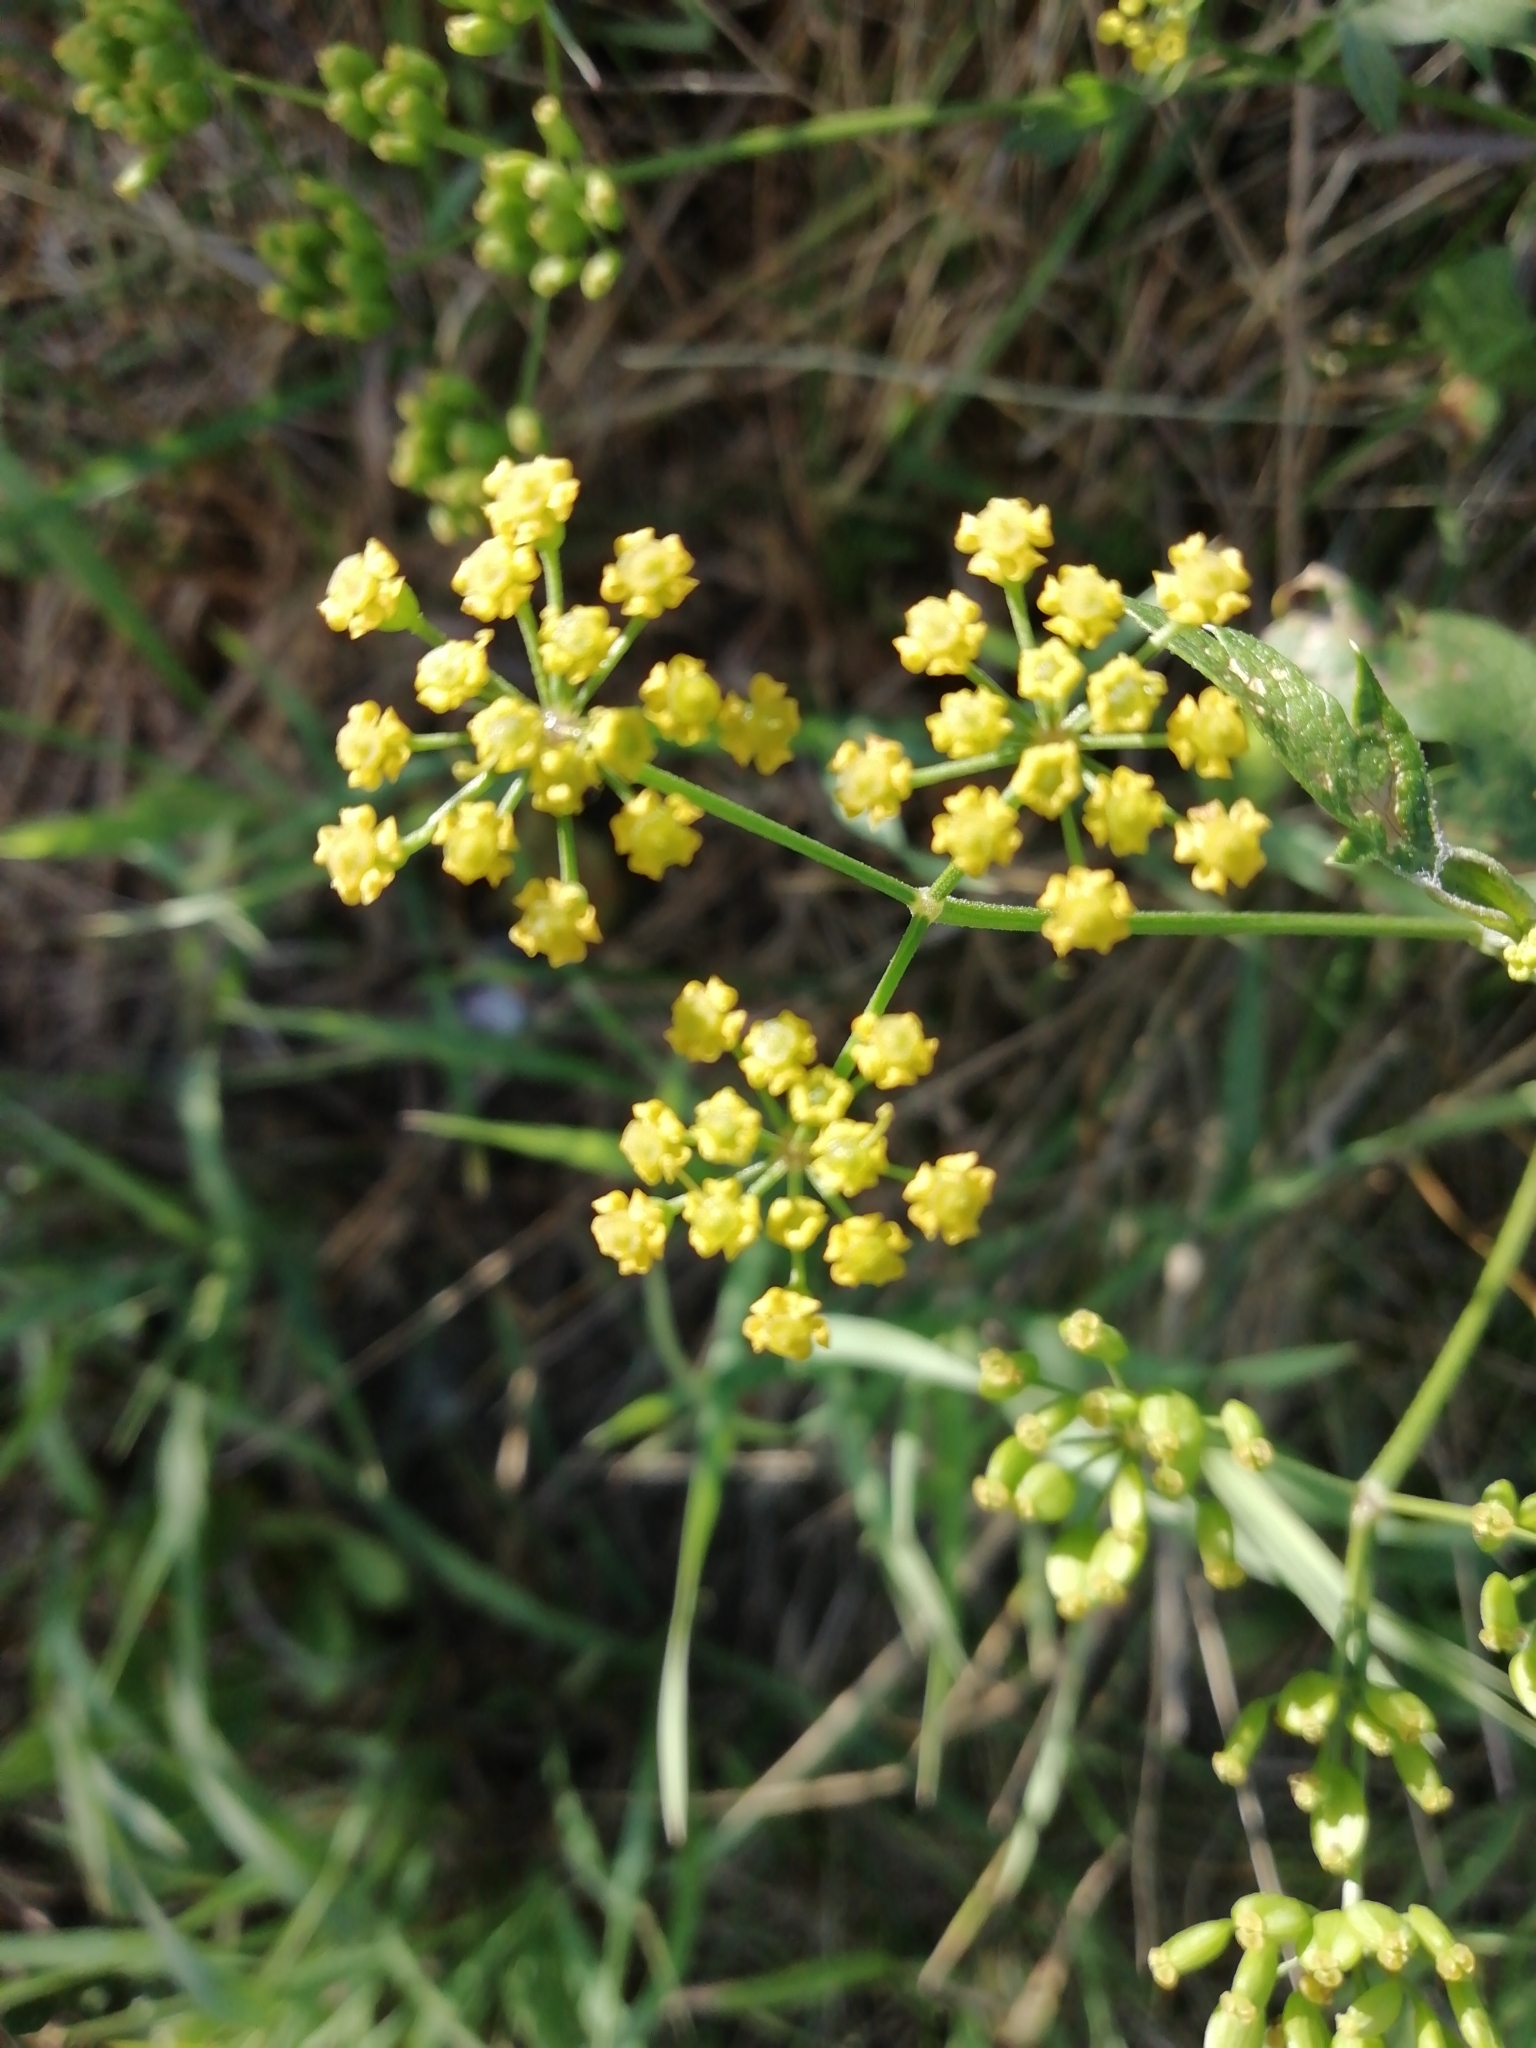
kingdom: Plantae
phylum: Tracheophyta
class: Magnoliopsida
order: Apiales
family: Apiaceae
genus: Pastinaca
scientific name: Pastinaca sativa
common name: Wild parsnip
